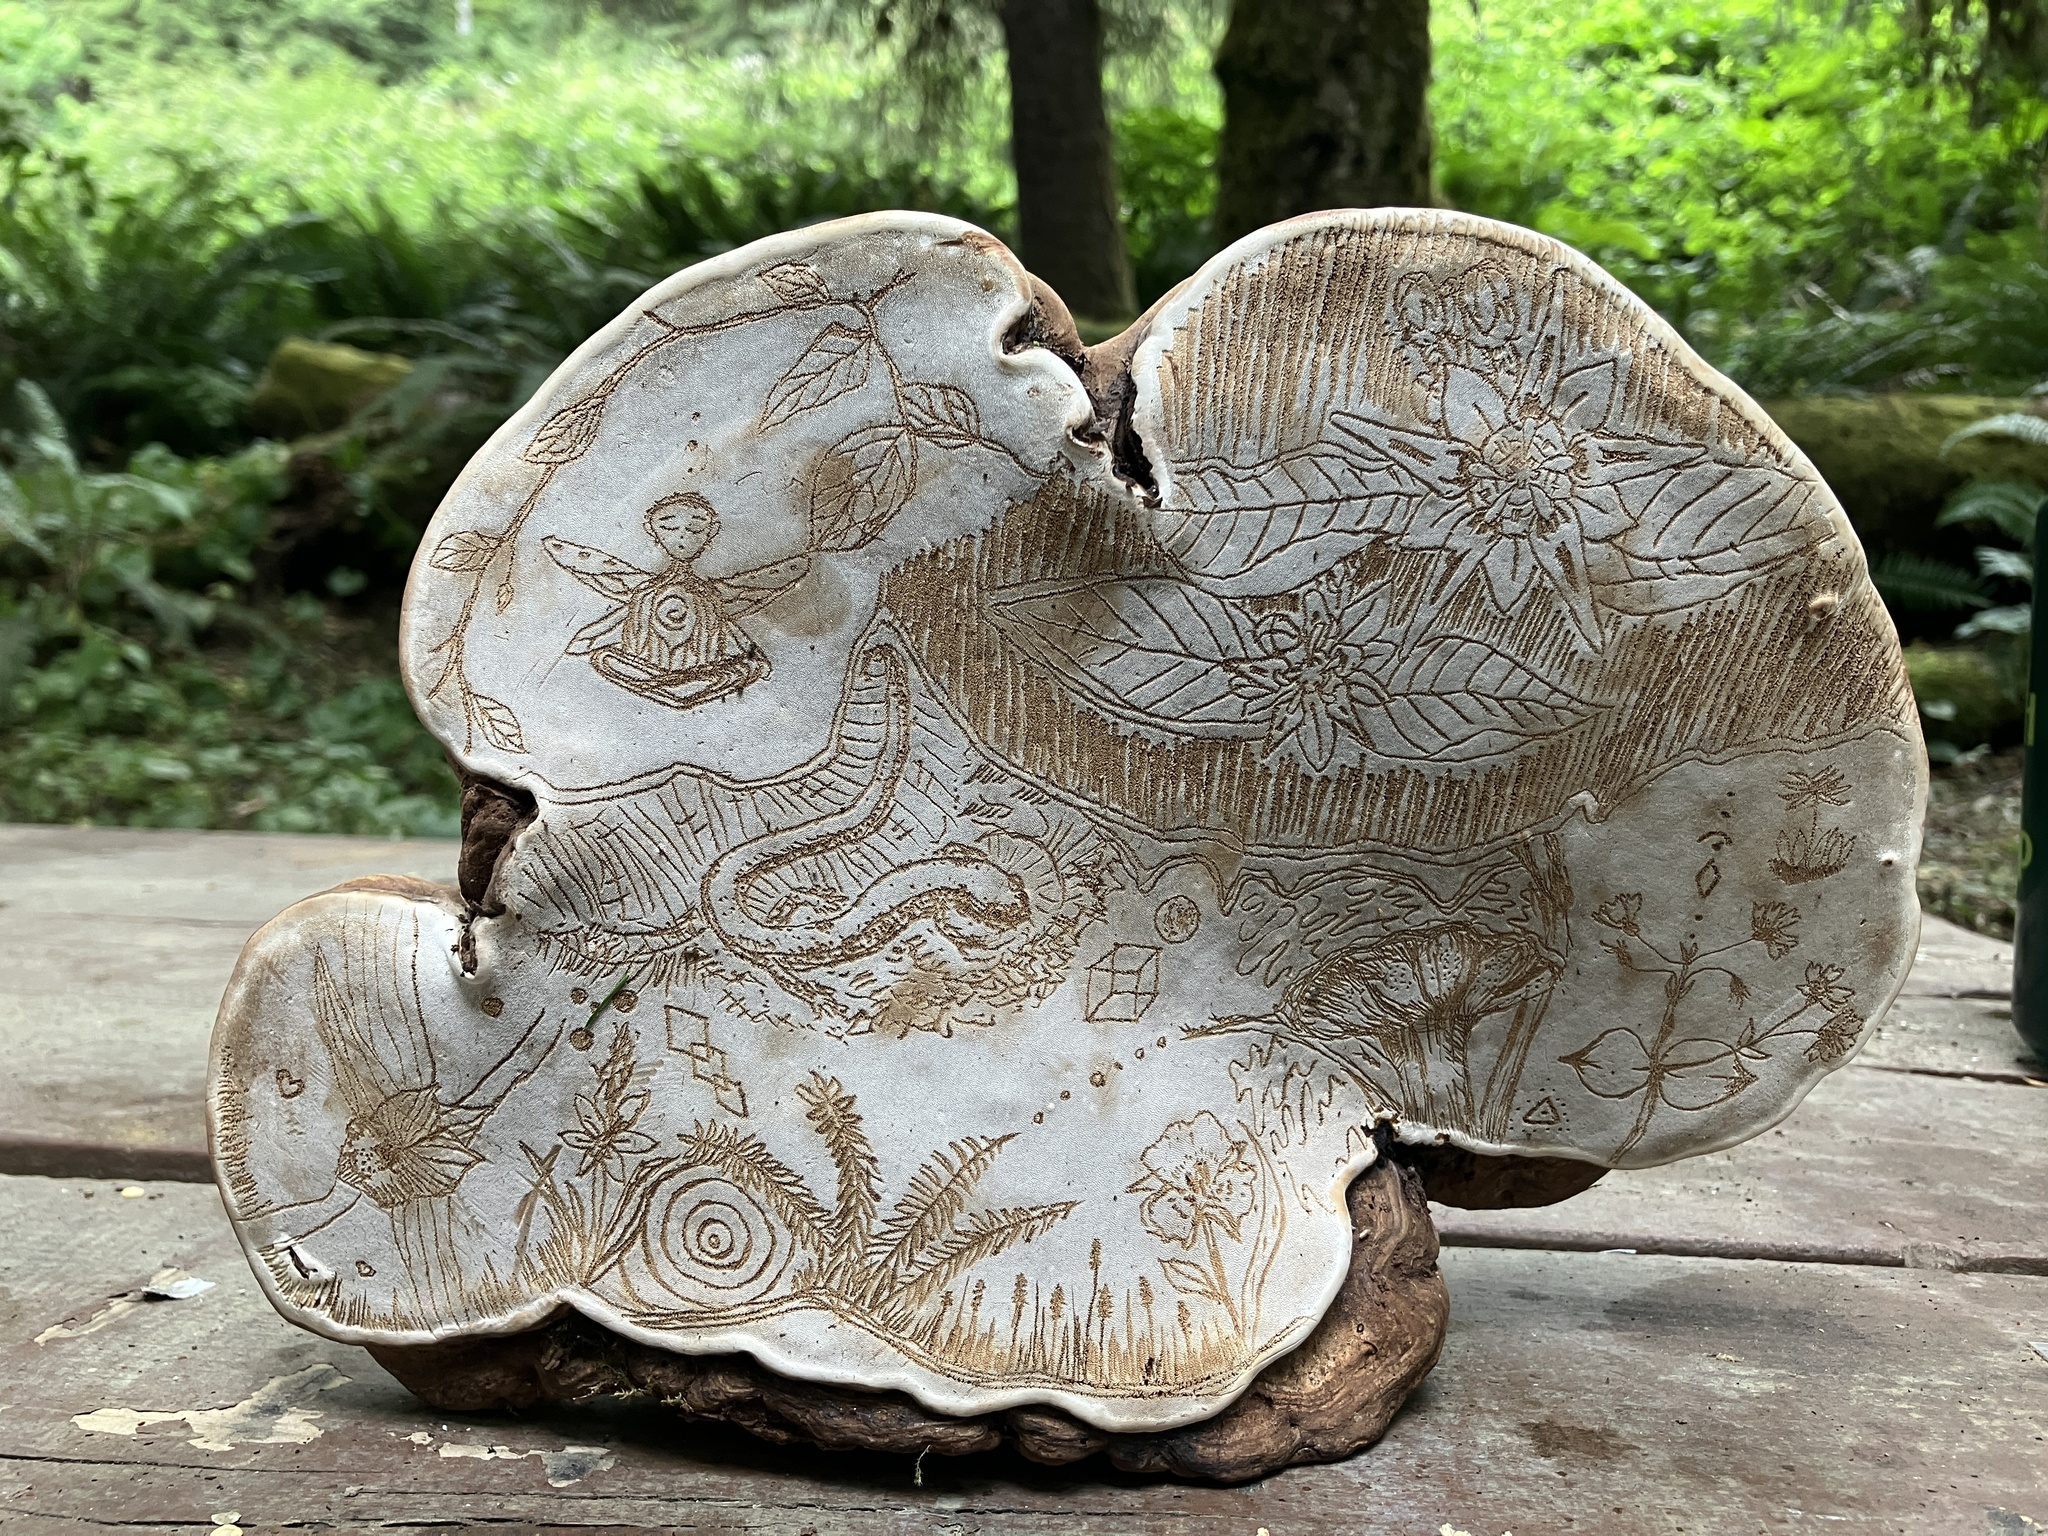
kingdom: Fungi
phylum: Basidiomycota
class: Agaricomycetes
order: Polyporales
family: Polyporaceae
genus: Ganoderma
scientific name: Ganoderma applanatum
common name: Artist's bracket
